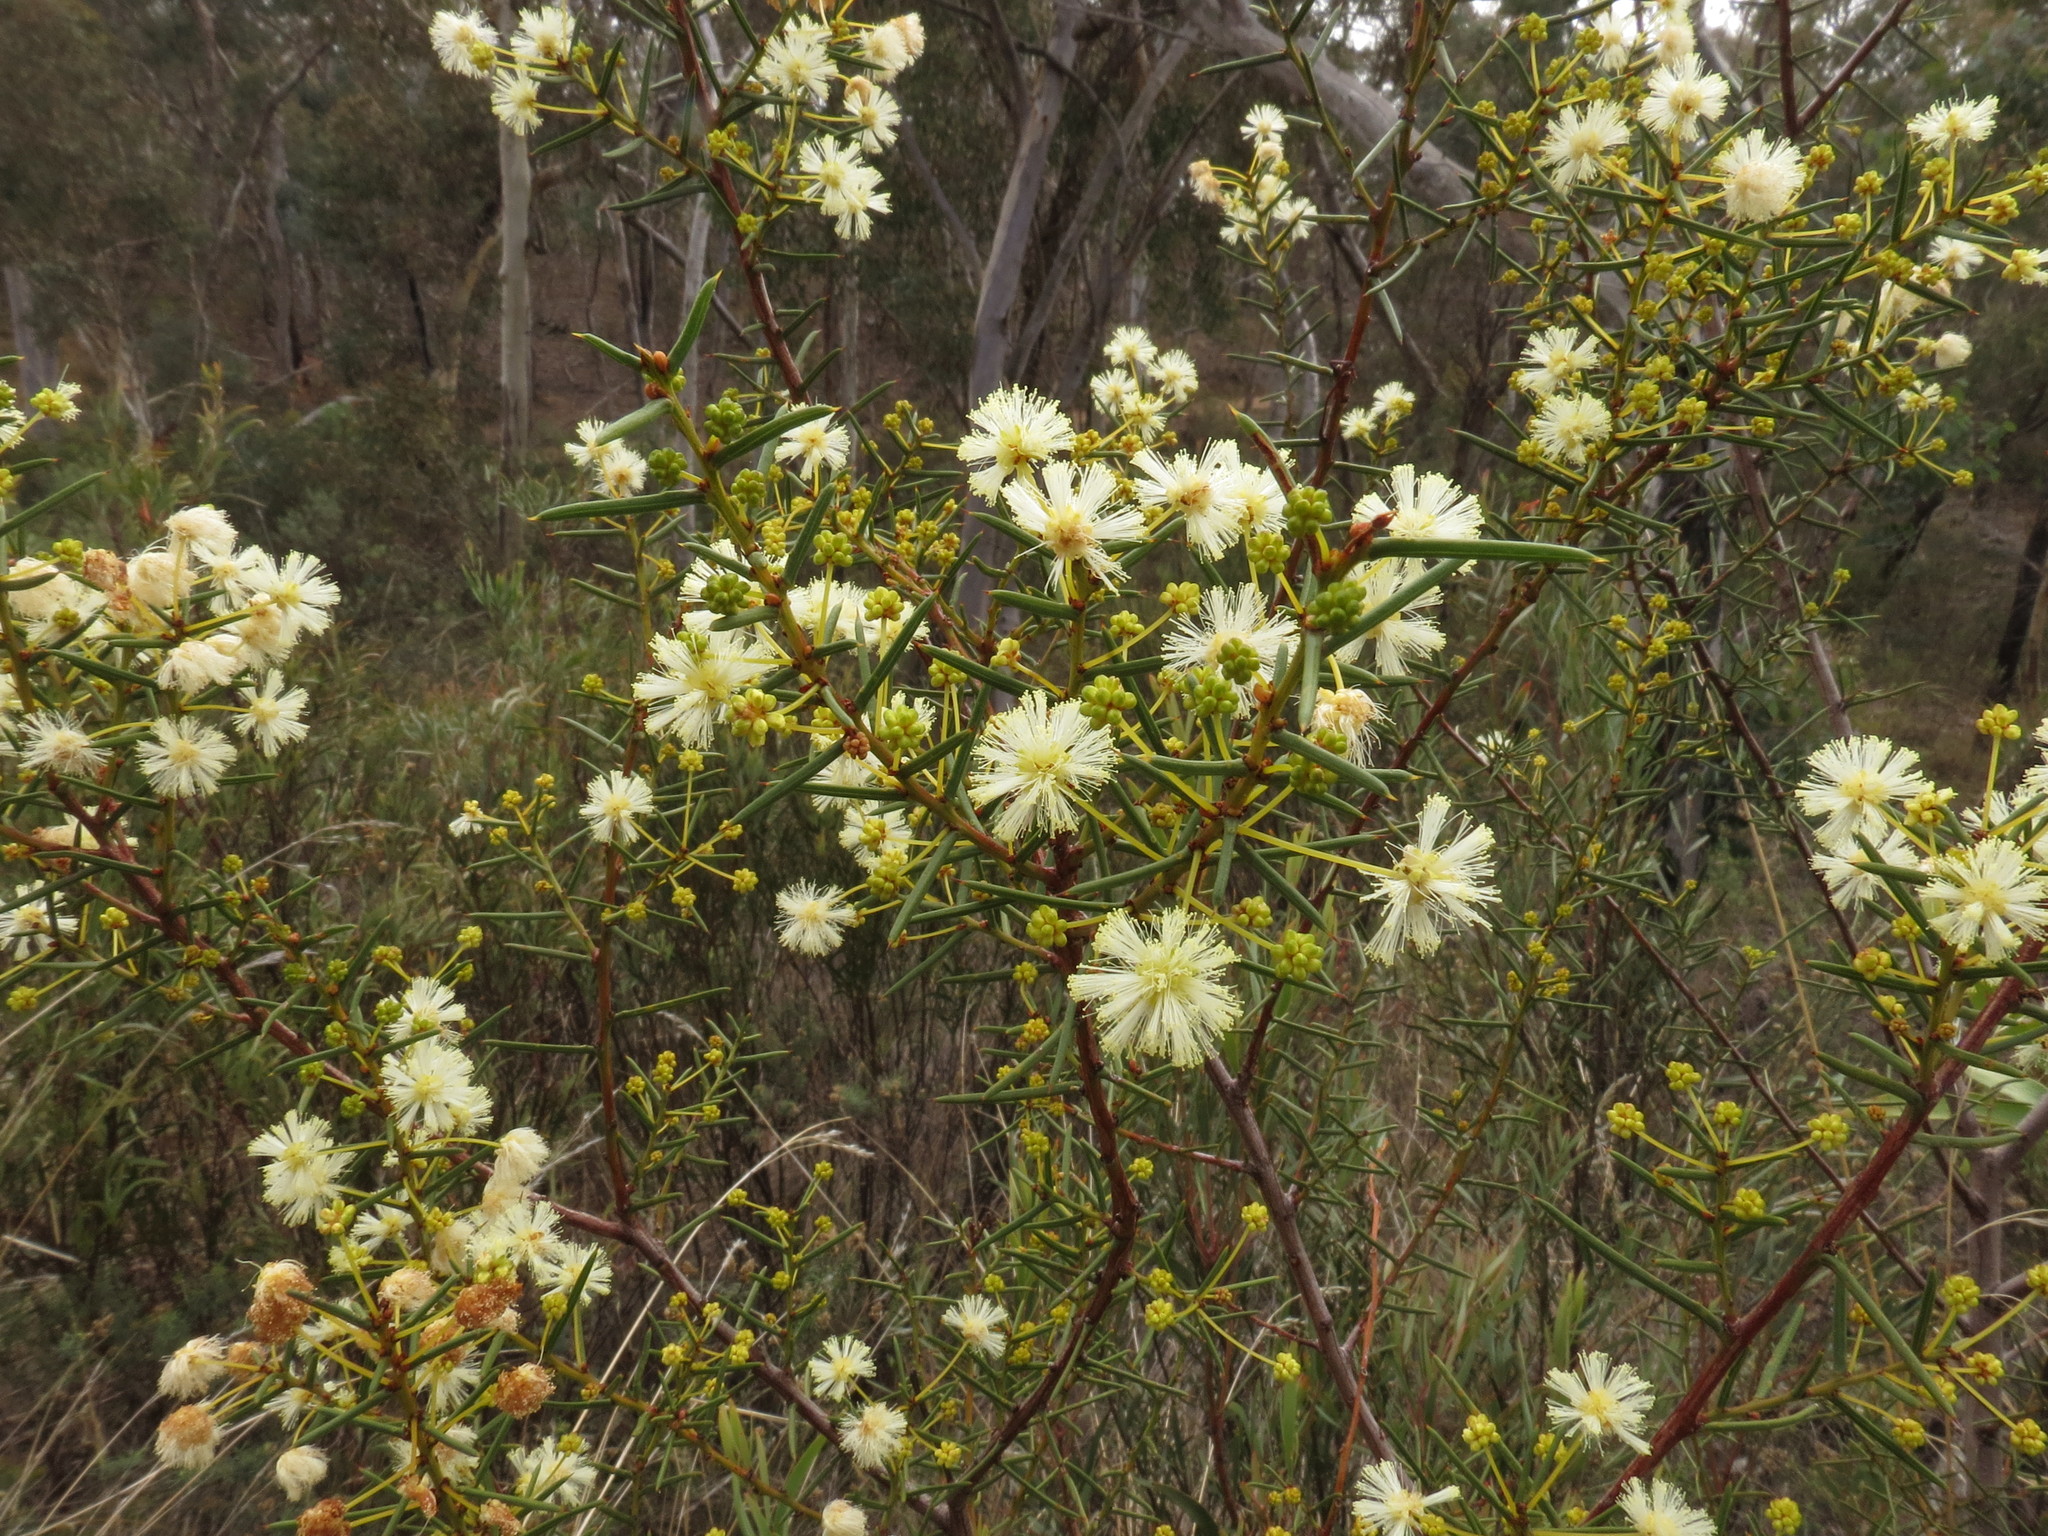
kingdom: Plantae
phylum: Tracheophyta
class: Magnoliopsida
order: Fabales
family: Fabaceae
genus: Acacia
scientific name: Acacia genistifolia
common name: Early wattle
